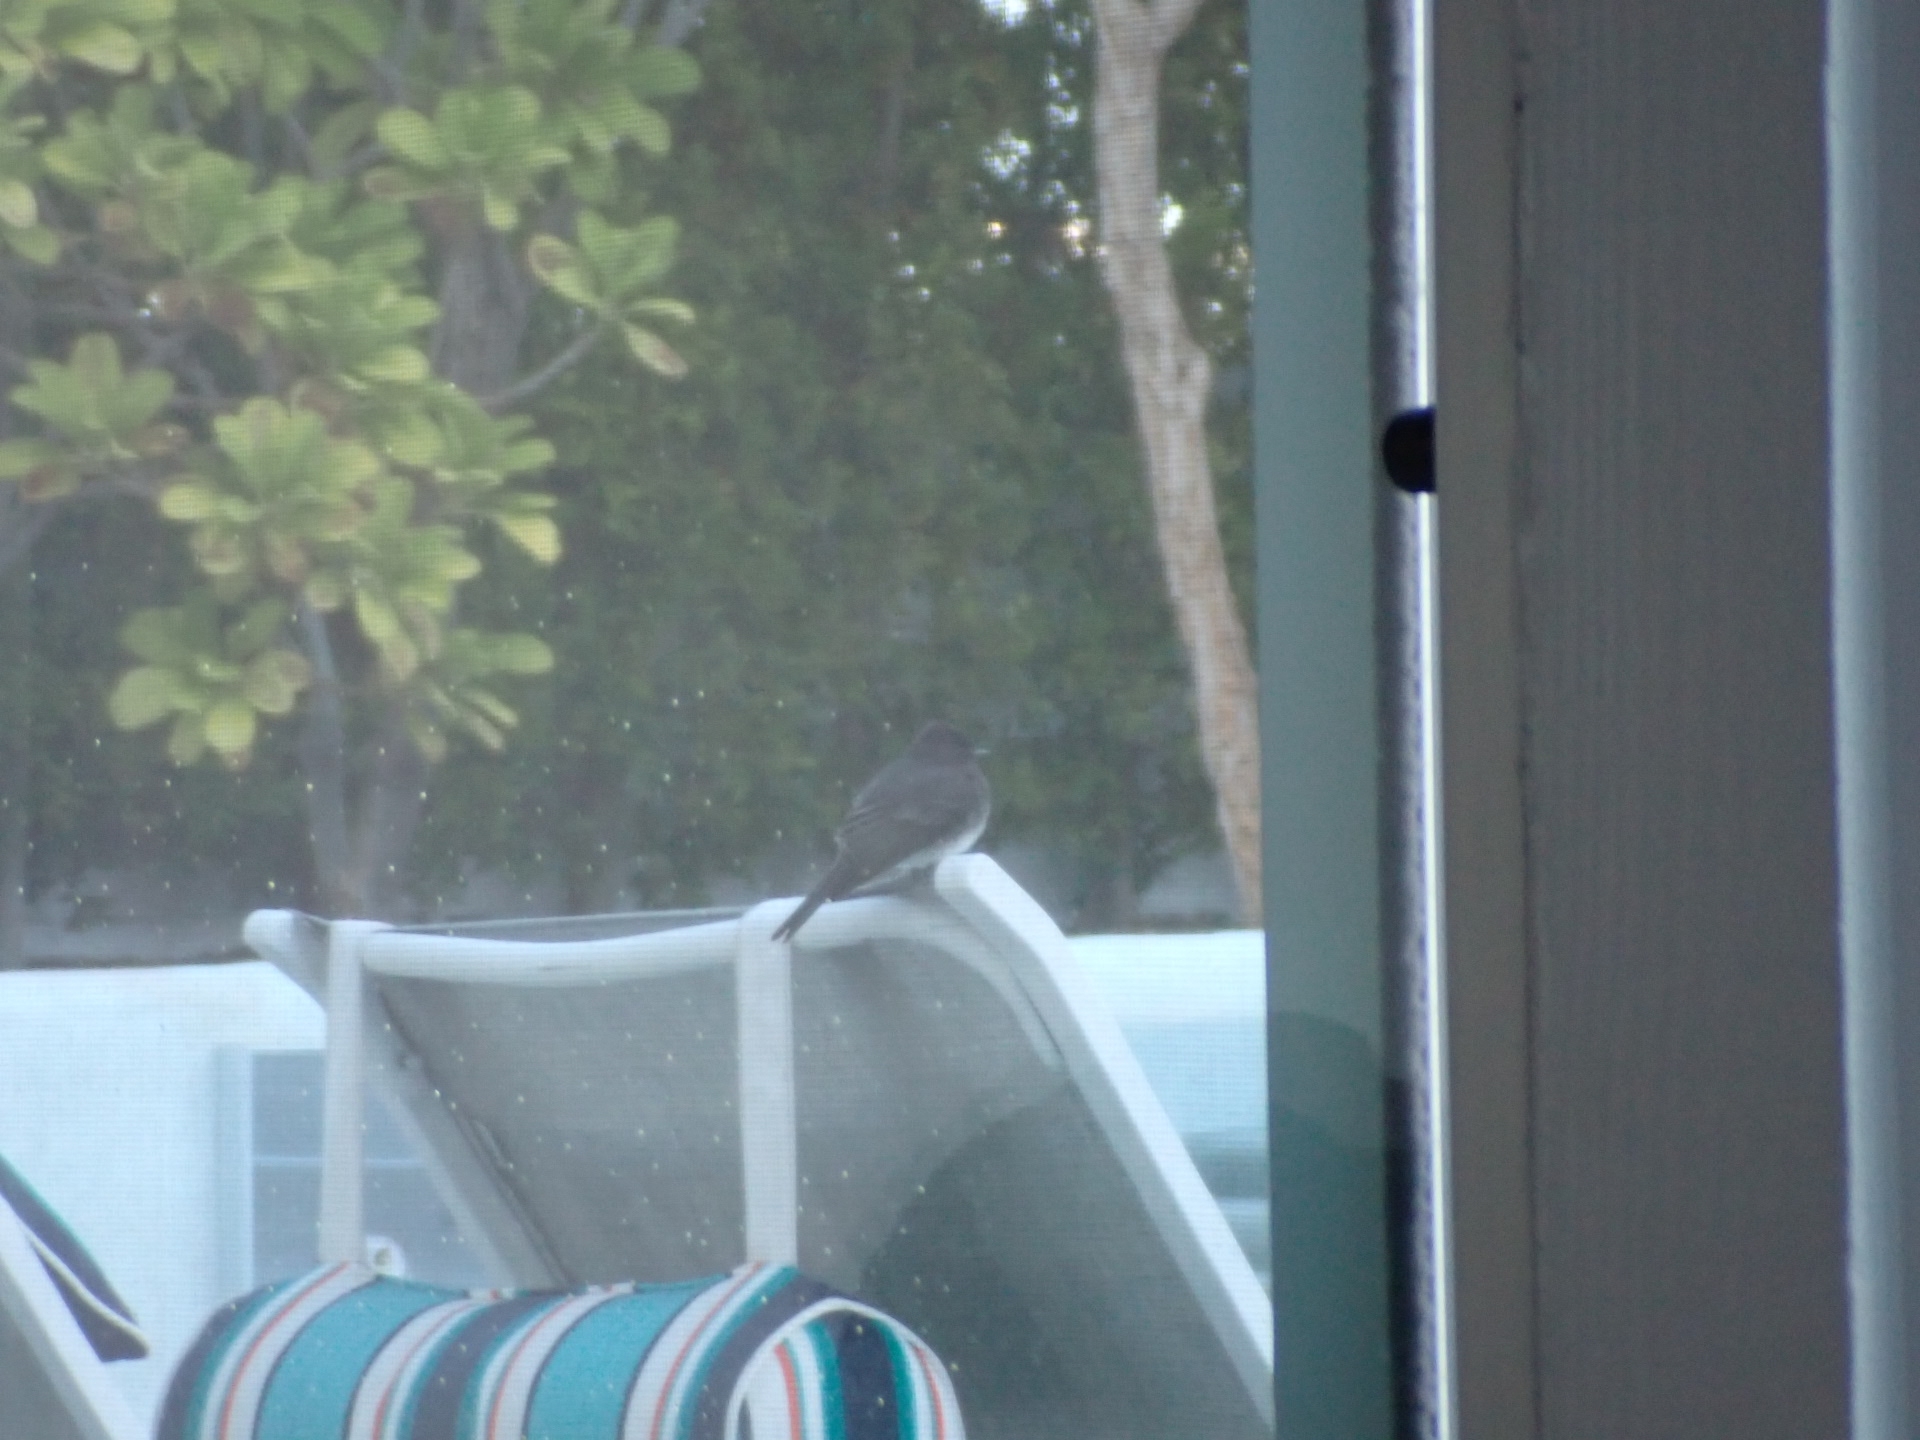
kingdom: Animalia
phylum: Chordata
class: Aves
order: Passeriformes
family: Tyrannidae
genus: Sayornis
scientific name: Sayornis nigricans
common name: Black phoebe
